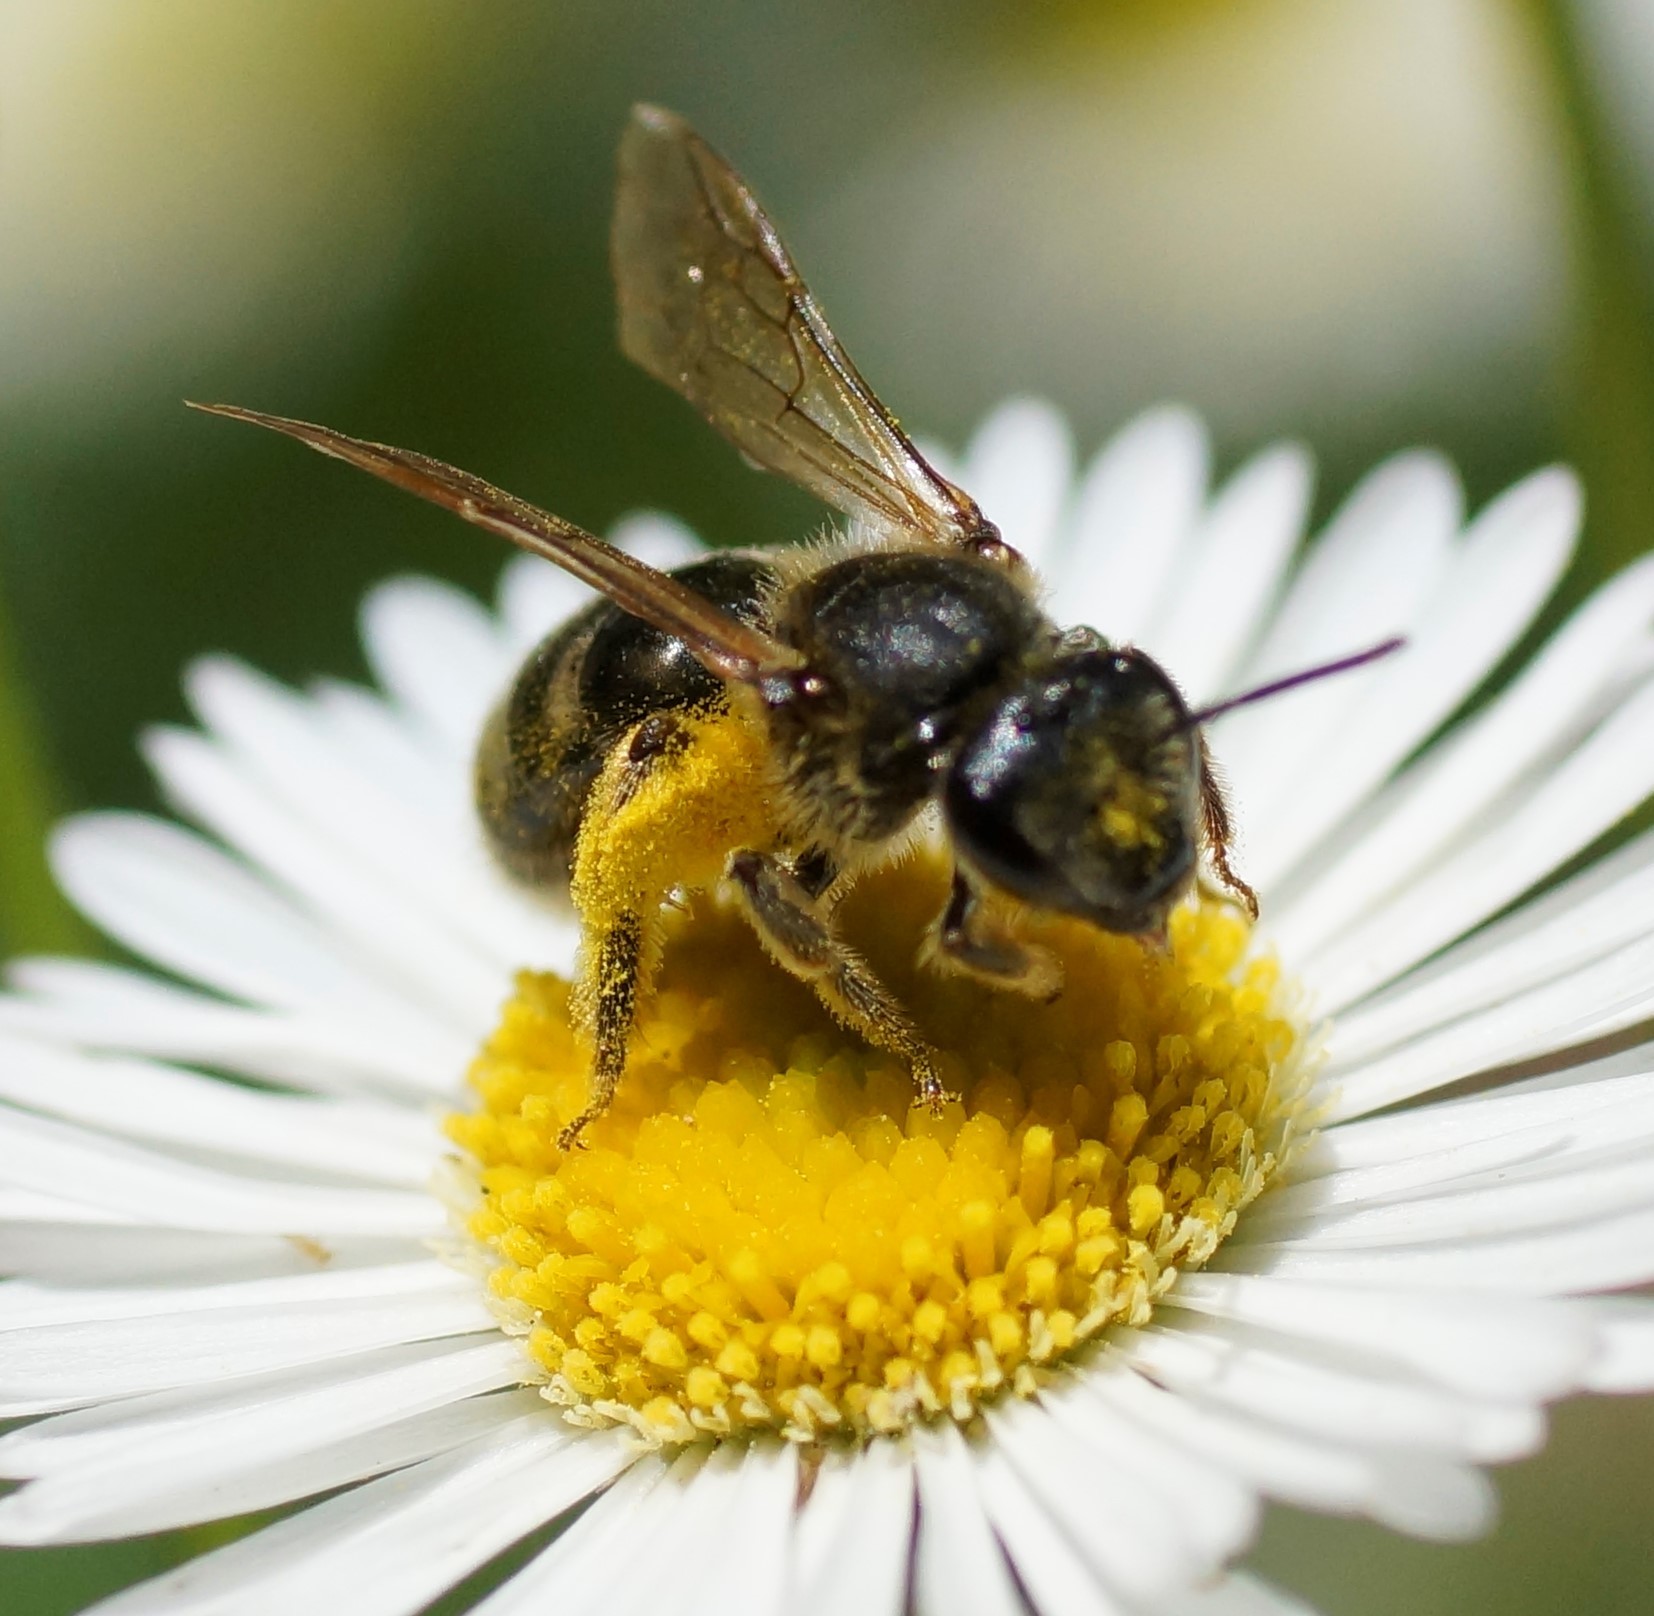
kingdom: Animalia
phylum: Arthropoda
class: Insecta
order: Hymenoptera
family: Halictidae
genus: Lasioglossum
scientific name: Lasioglossum lanarium
